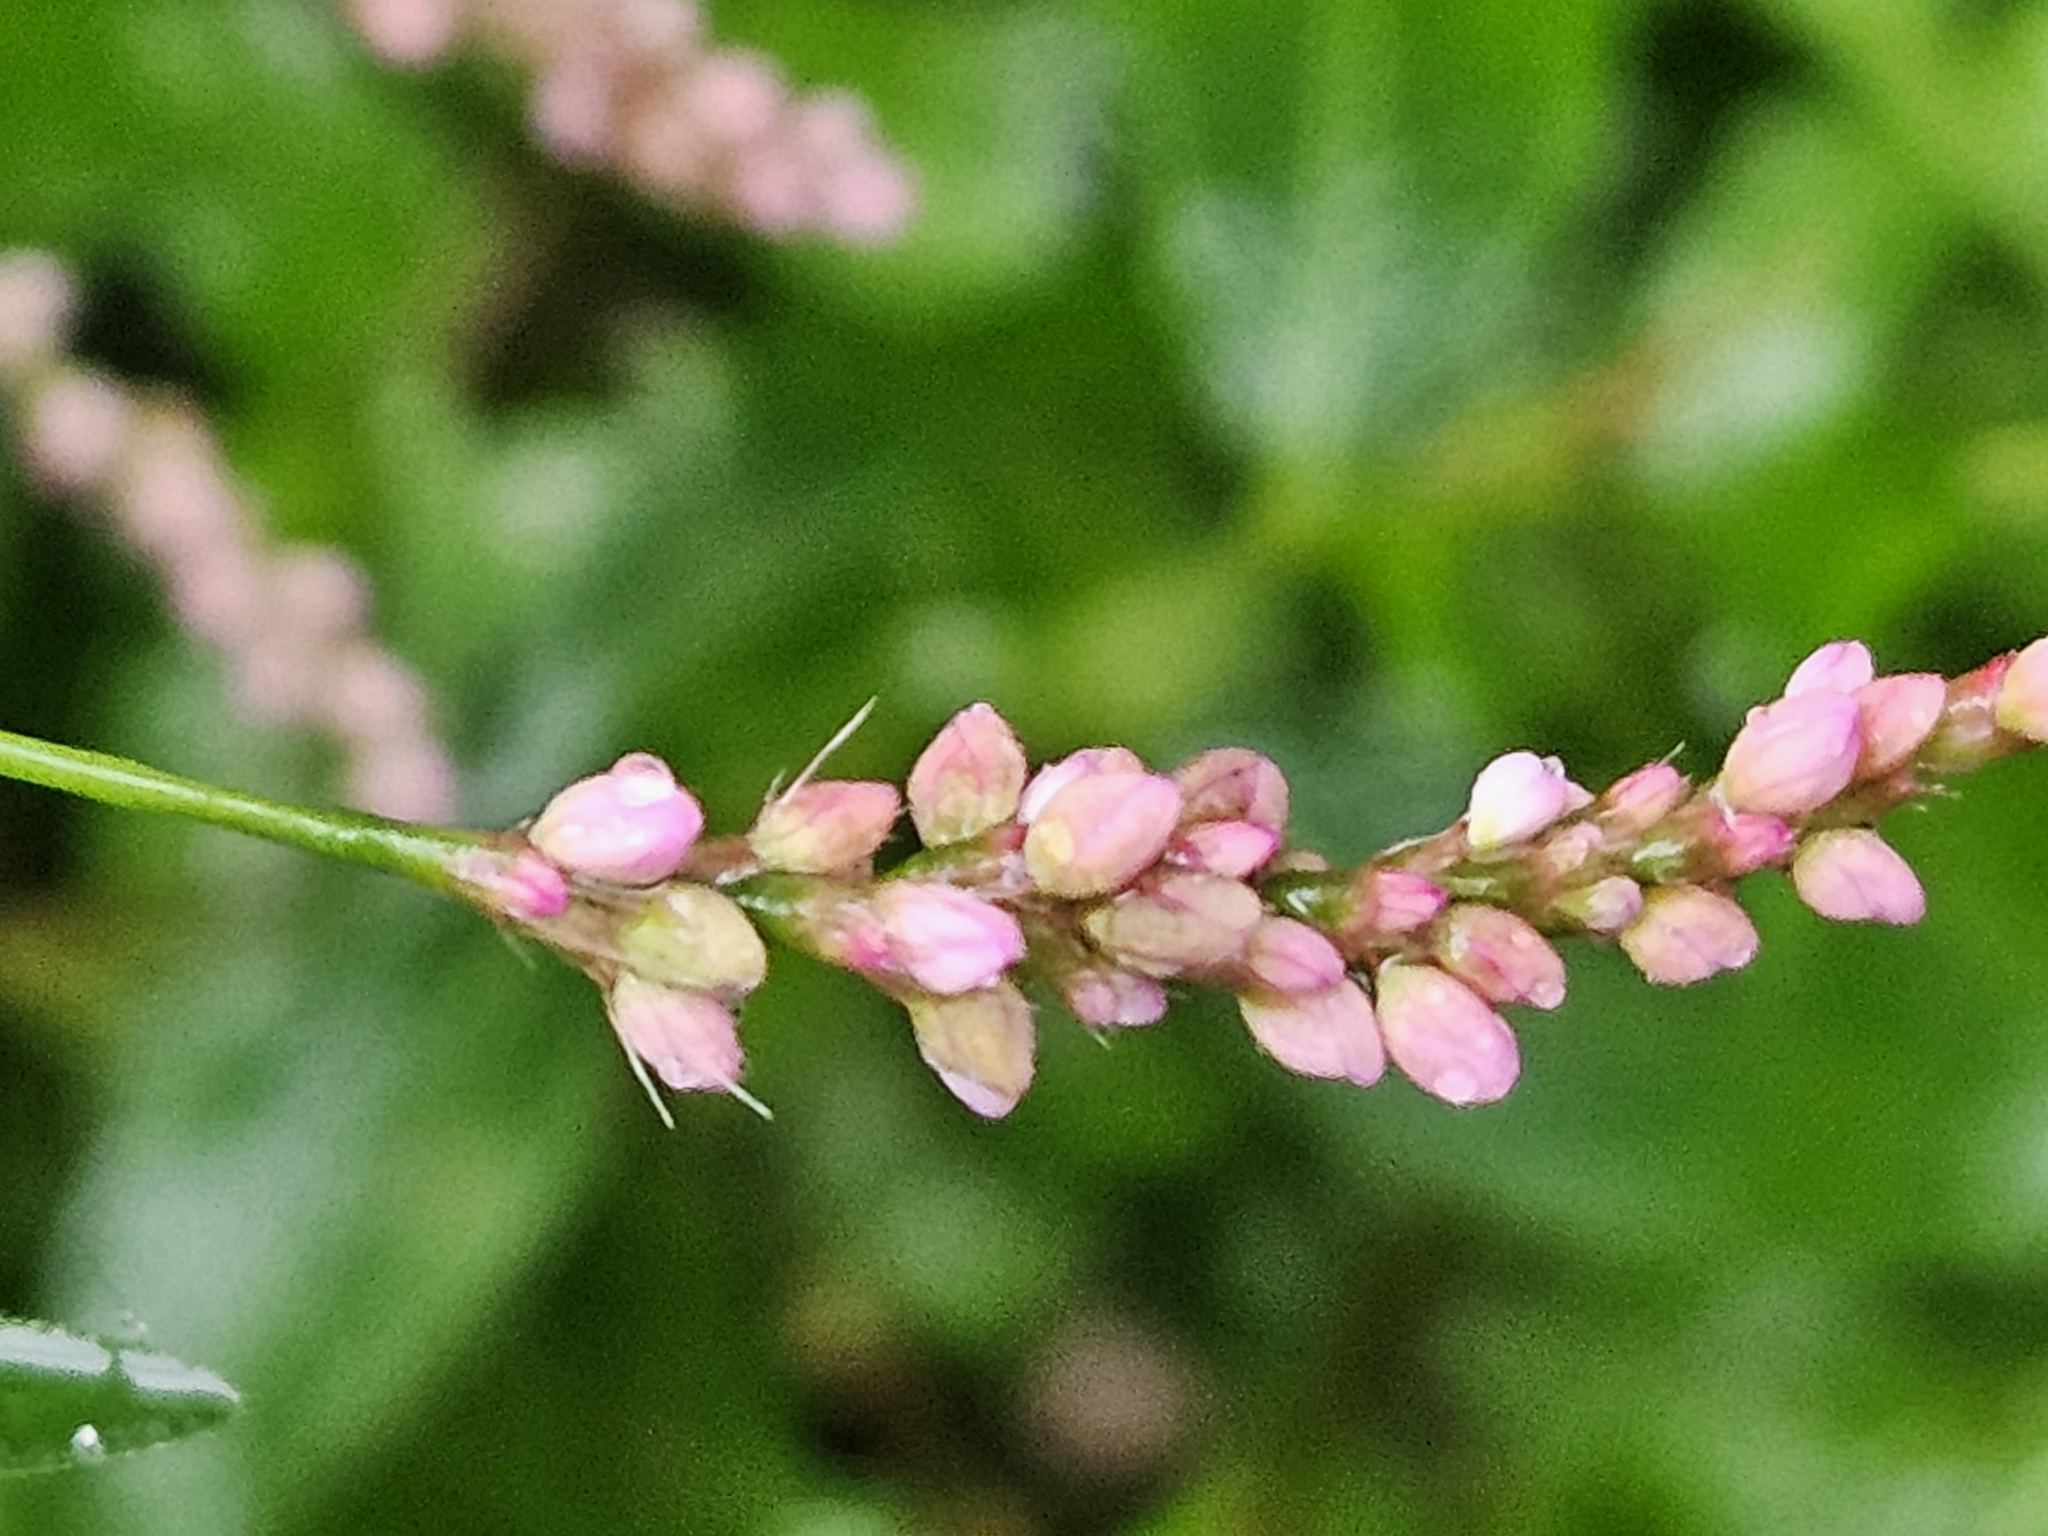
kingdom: Plantae
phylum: Tracheophyta
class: Magnoliopsida
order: Caryophyllales
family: Polygonaceae
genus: Persicaria
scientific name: Persicaria longiseta
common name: Bristly lady's-thumb
